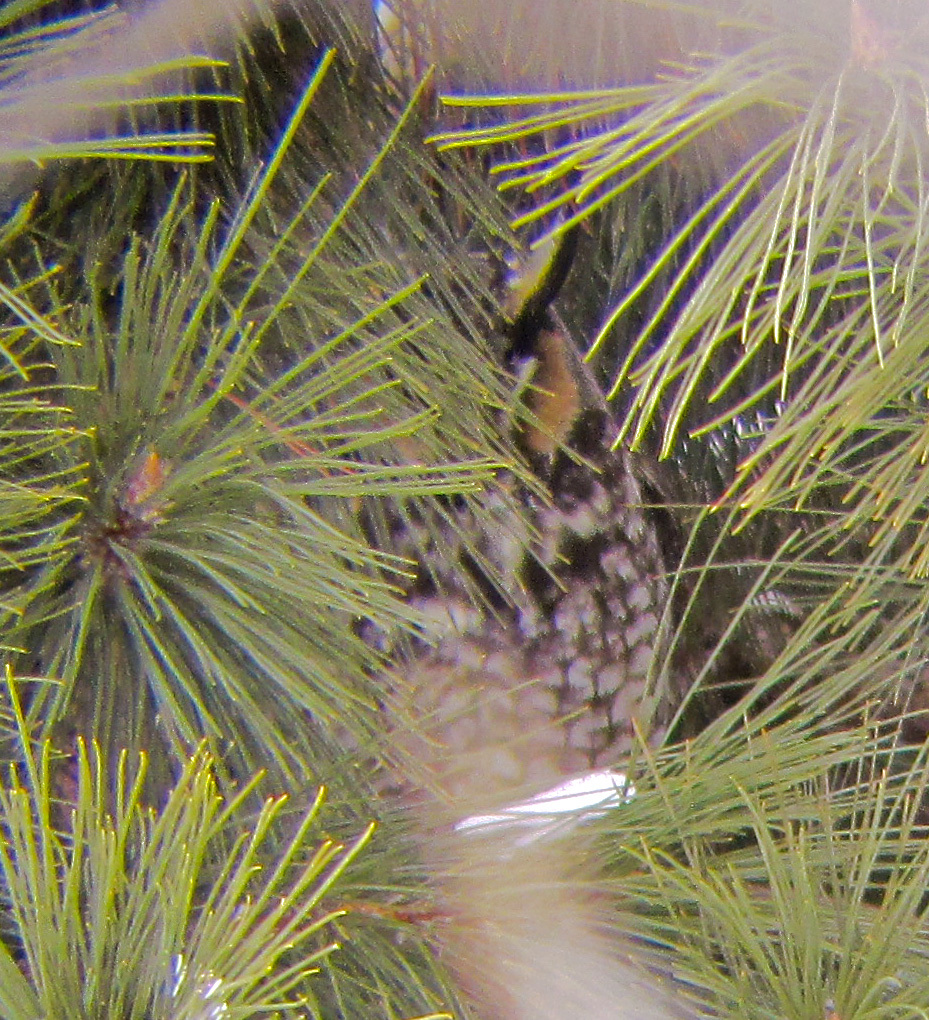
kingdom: Animalia
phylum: Chordata
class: Aves
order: Strigiformes
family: Strigidae
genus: Asio
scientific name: Asio otus
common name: Long-eared owl
